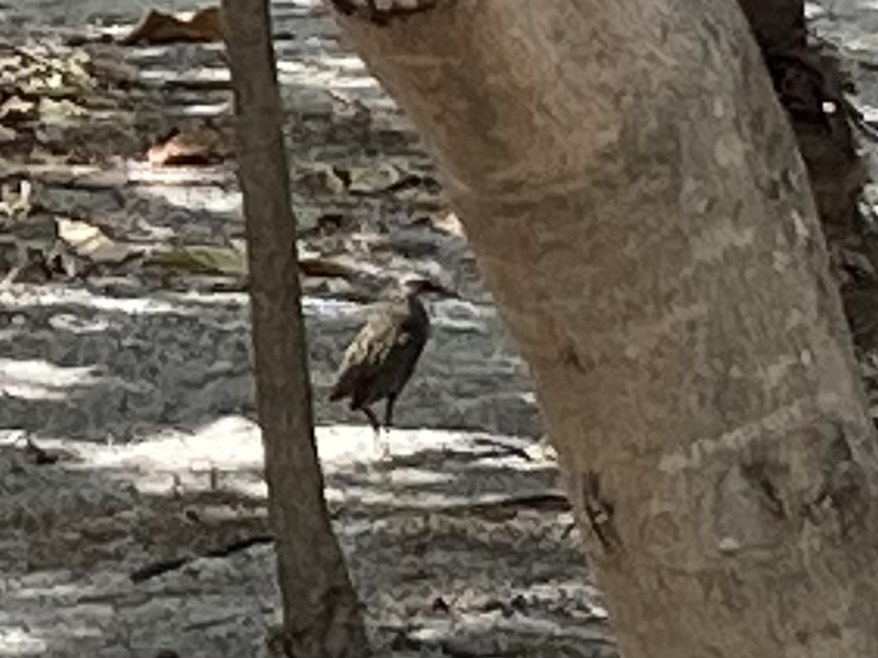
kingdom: Animalia
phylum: Chordata
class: Aves
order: Gruiformes
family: Rallidae
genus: Gallirallus
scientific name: Gallirallus philippensis
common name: Buff-banded rail
